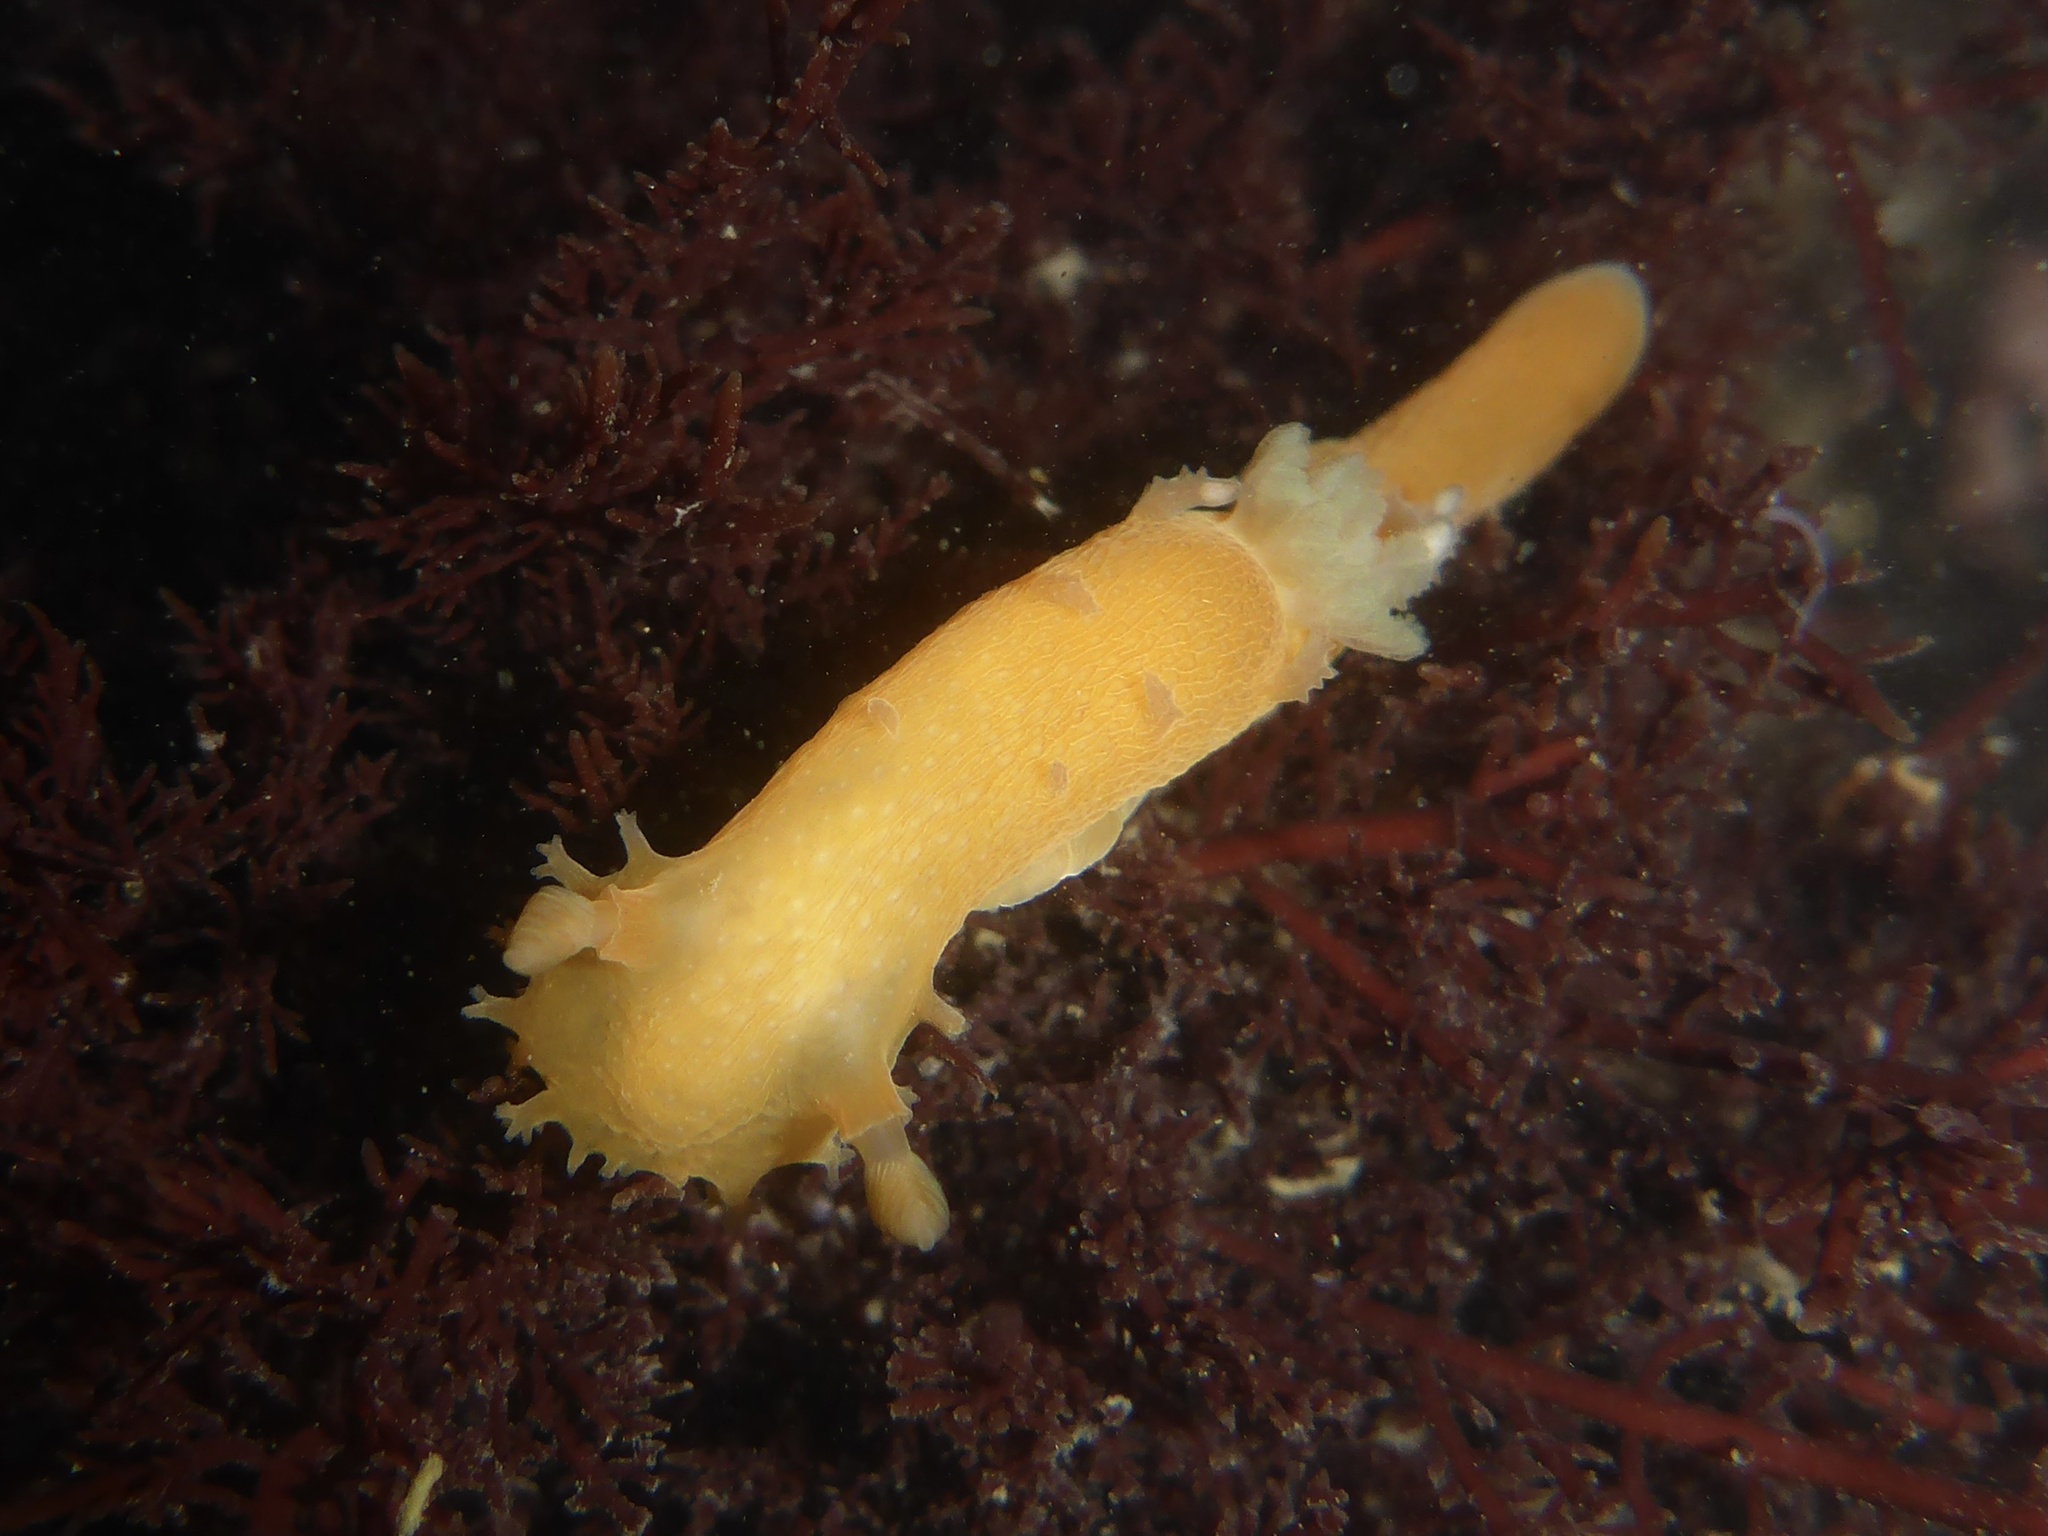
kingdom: Animalia
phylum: Mollusca
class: Gastropoda
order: Nudibranchia
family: Polyceridae
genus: Triopha
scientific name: Triopha maculata
